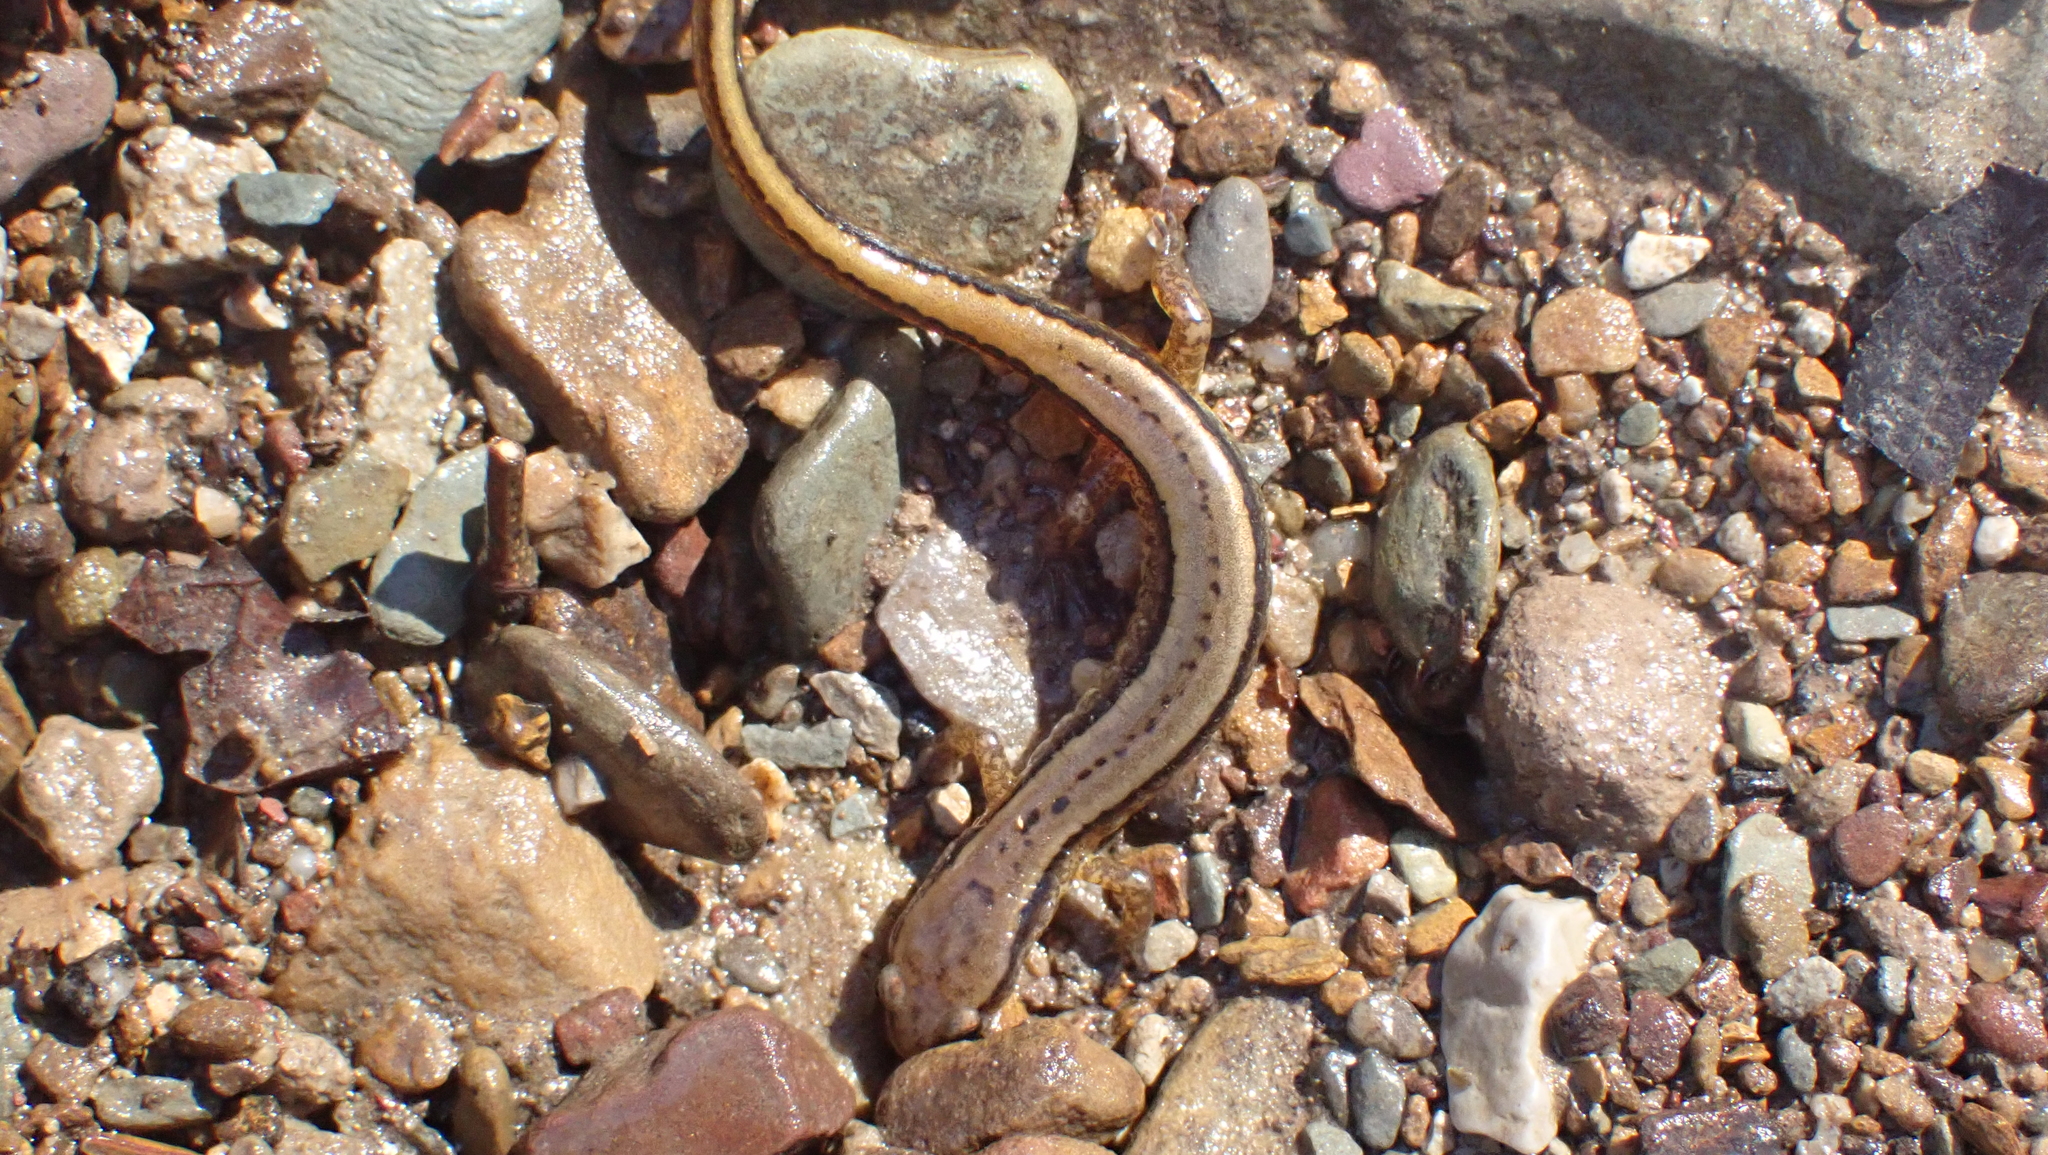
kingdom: Animalia
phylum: Chordata
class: Amphibia
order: Caudata
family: Plethodontidae
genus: Eurycea
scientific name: Eurycea cirrigera
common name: Southern two-lined salamander
